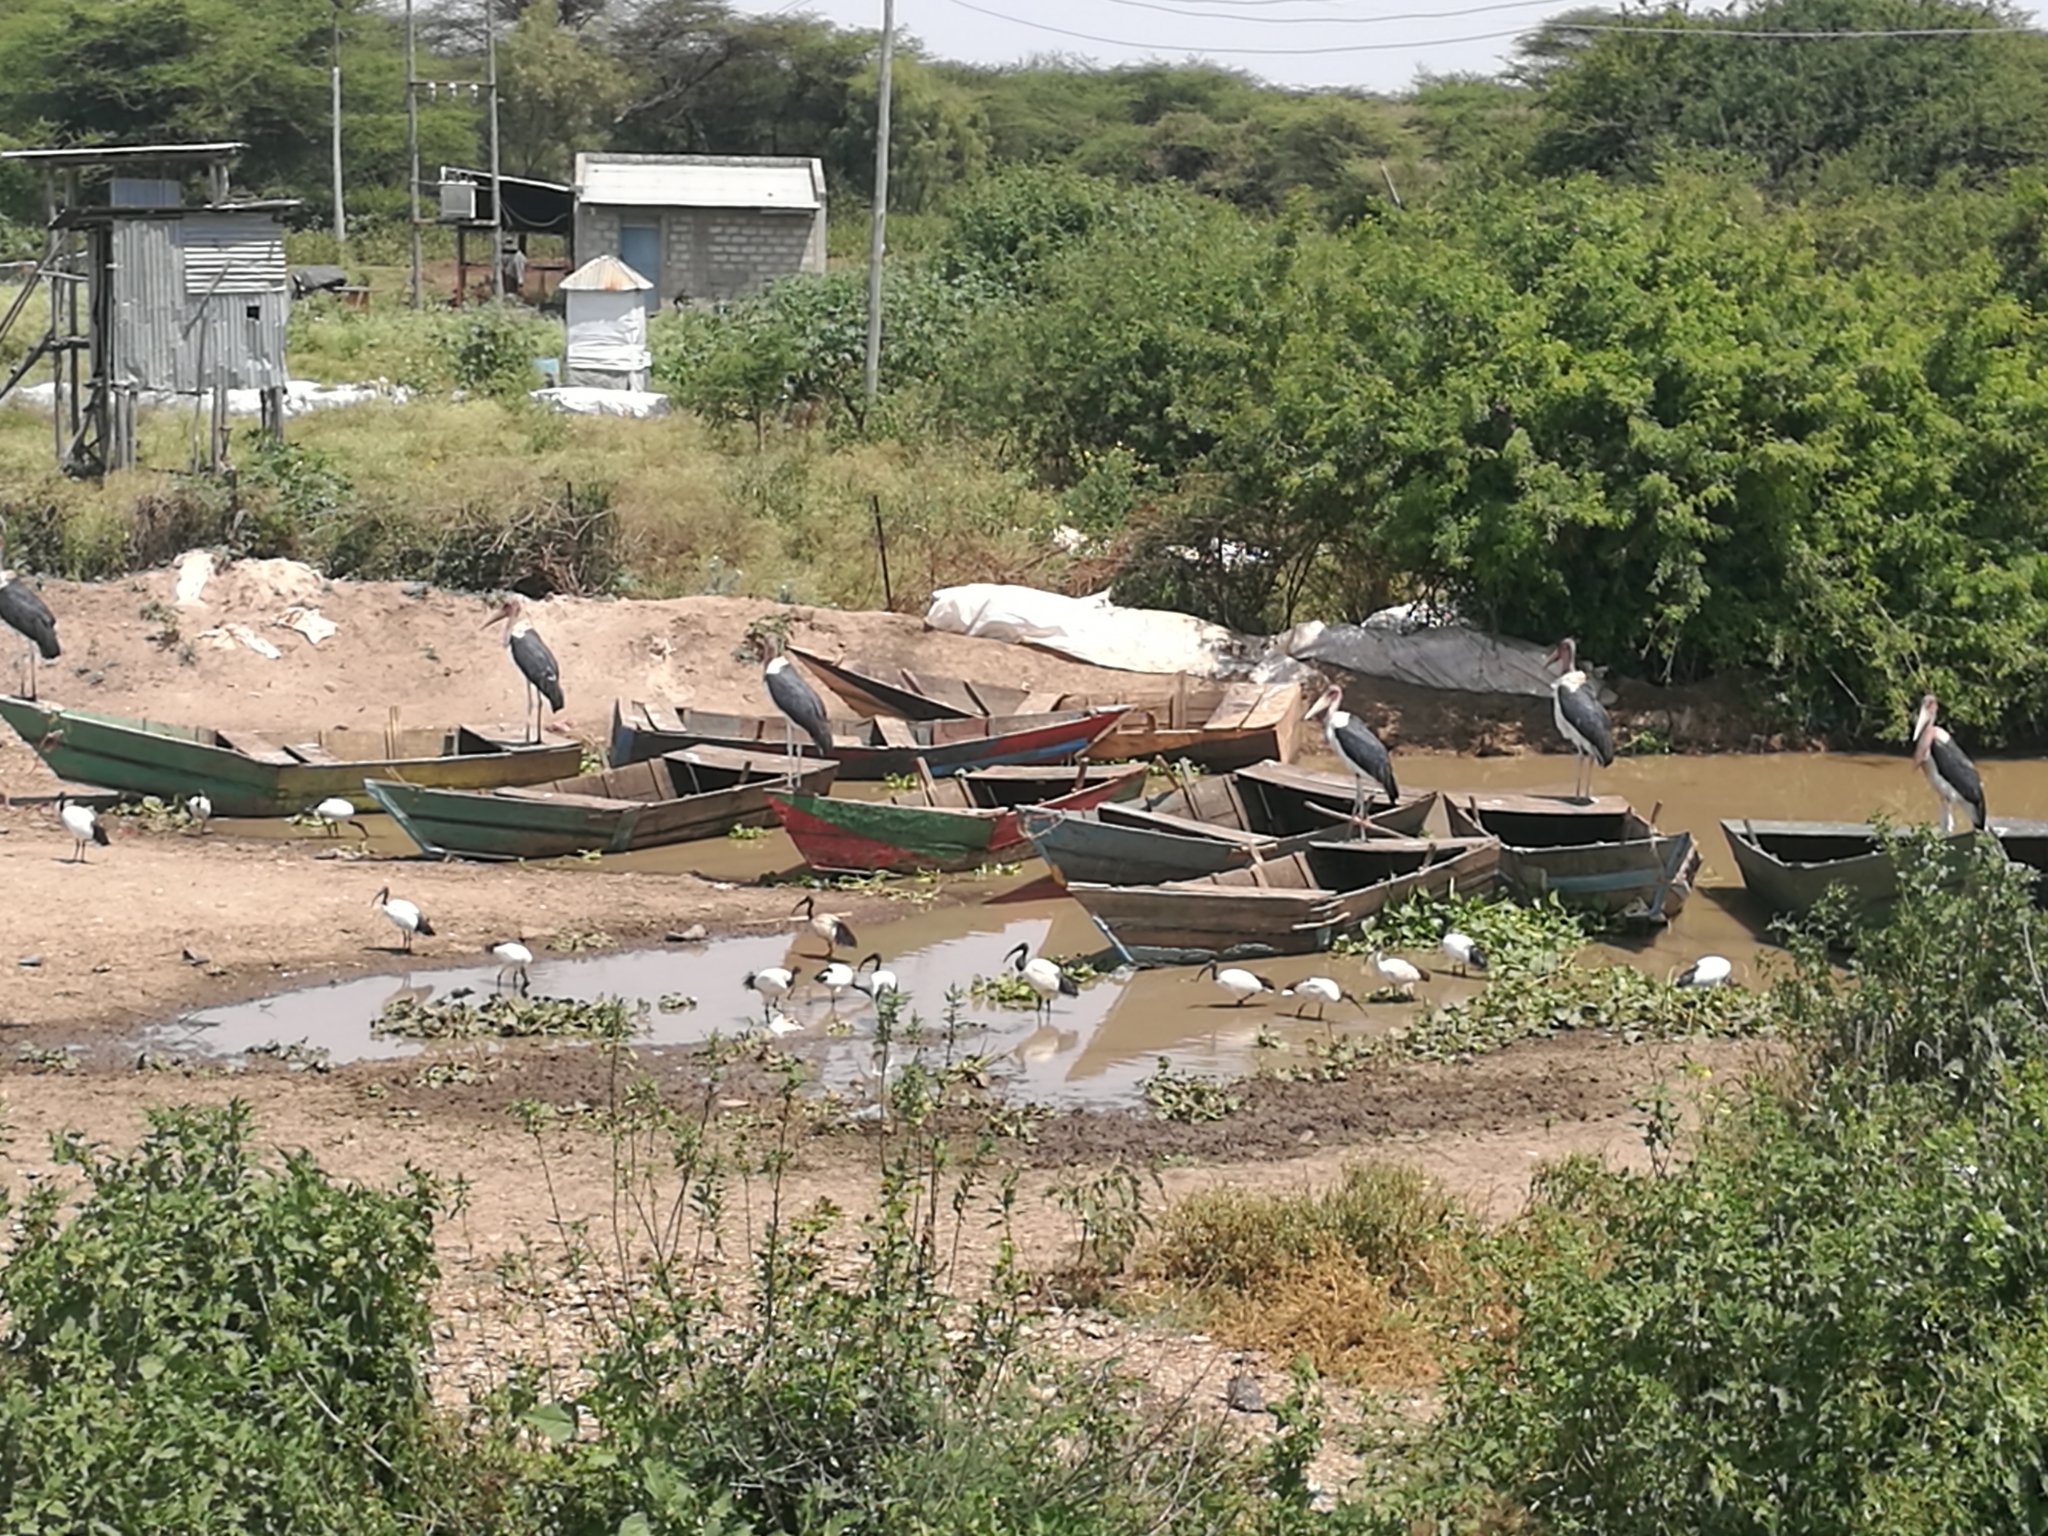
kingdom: Animalia
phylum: Chordata
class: Aves
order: Pelecaniformes
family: Threskiornithidae
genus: Threskiornis
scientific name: Threskiornis aethiopicus
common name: Sacred ibis
